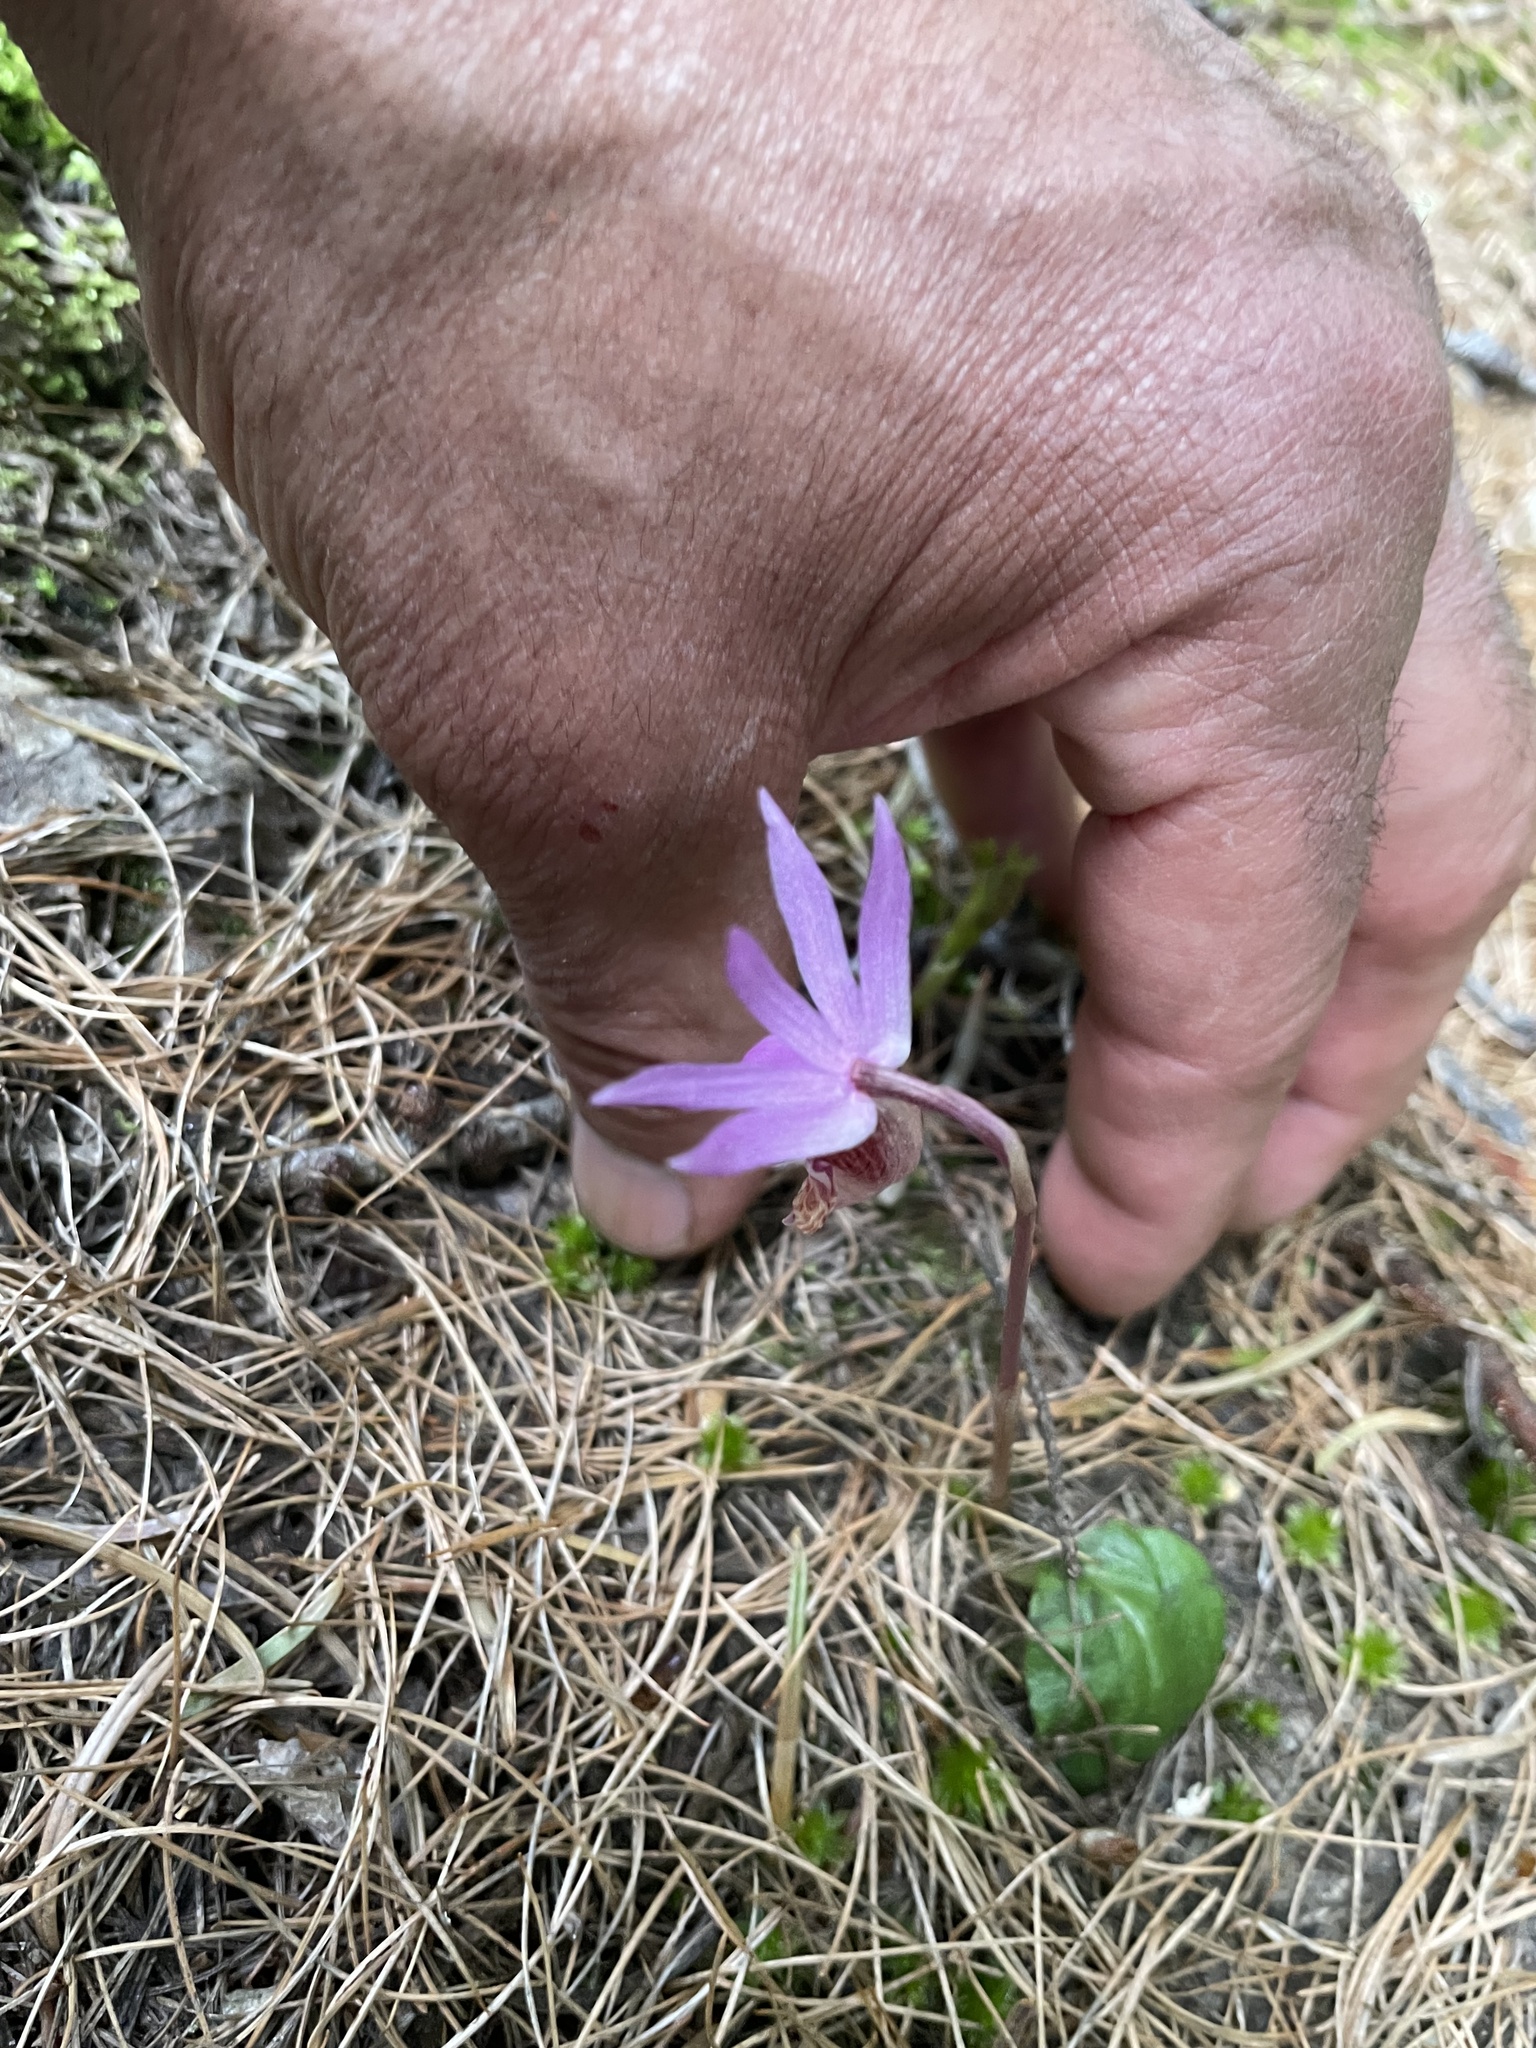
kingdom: Plantae
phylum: Tracheophyta
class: Liliopsida
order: Asparagales
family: Orchidaceae
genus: Calypso
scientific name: Calypso bulbosa
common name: Calypso
